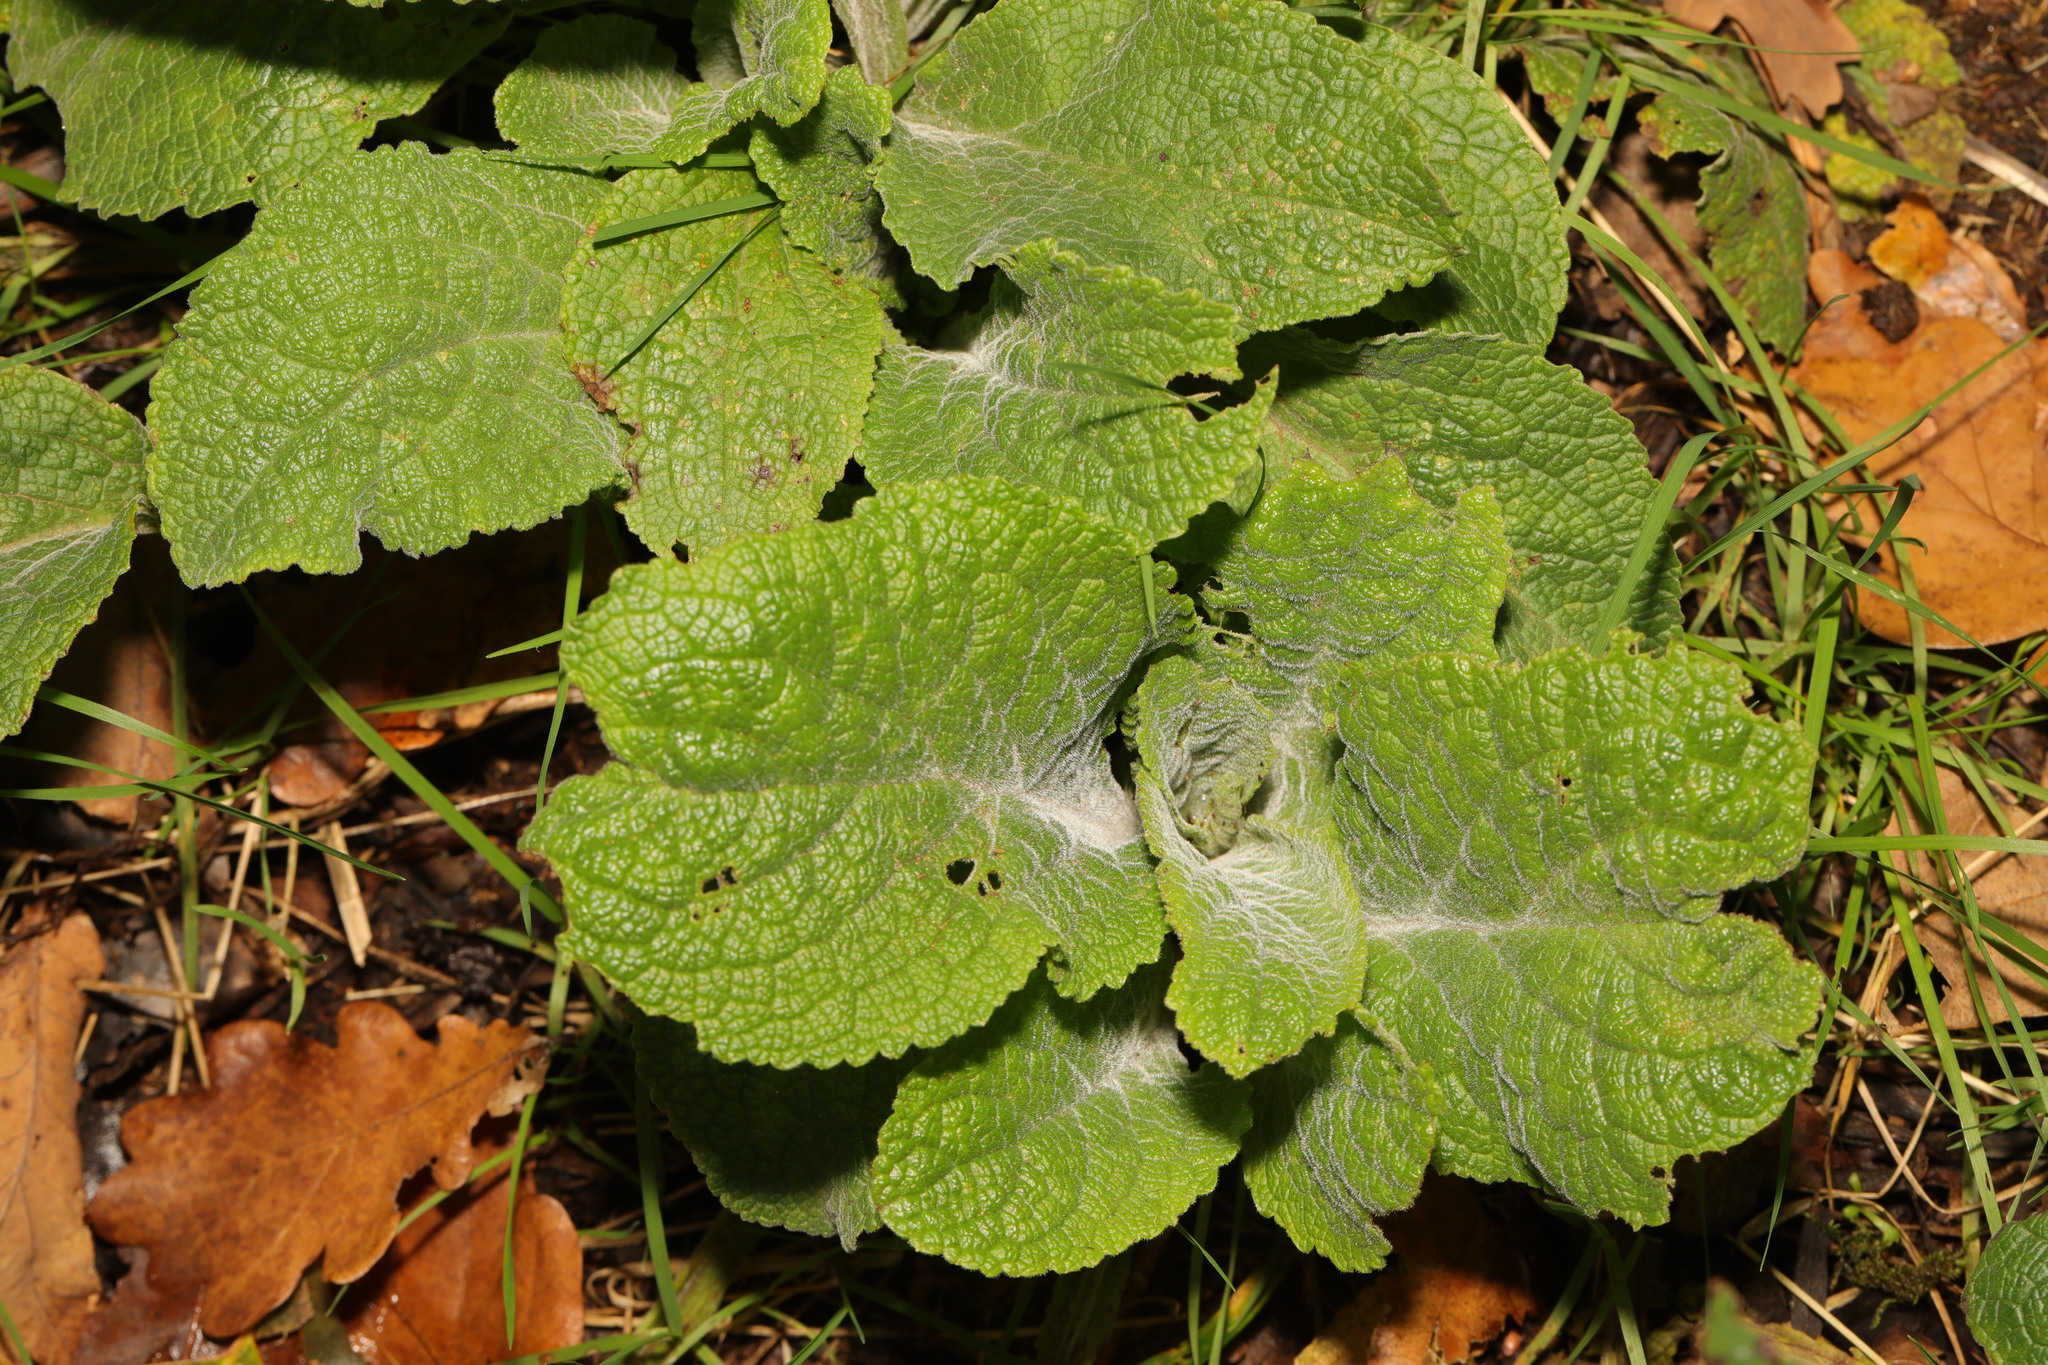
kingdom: Plantae
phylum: Tracheophyta
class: Magnoliopsida
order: Lamiales
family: Plantaginaceae
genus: Digitalis
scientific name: Digitalis purpurea
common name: Foxglove
